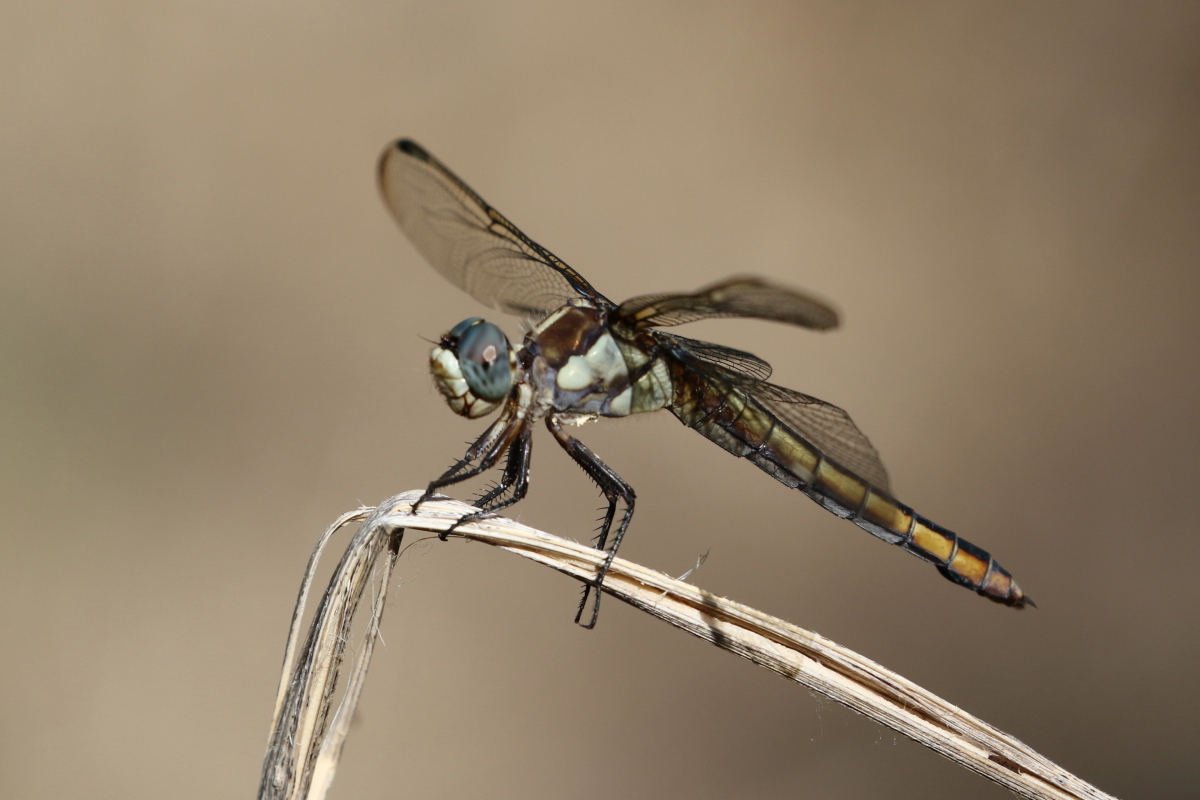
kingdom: Animalia
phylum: Arthropoda
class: Insecta
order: Odonata
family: Libellulidae
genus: Libellula
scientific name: Libellula comanche
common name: Comanche skimmer
